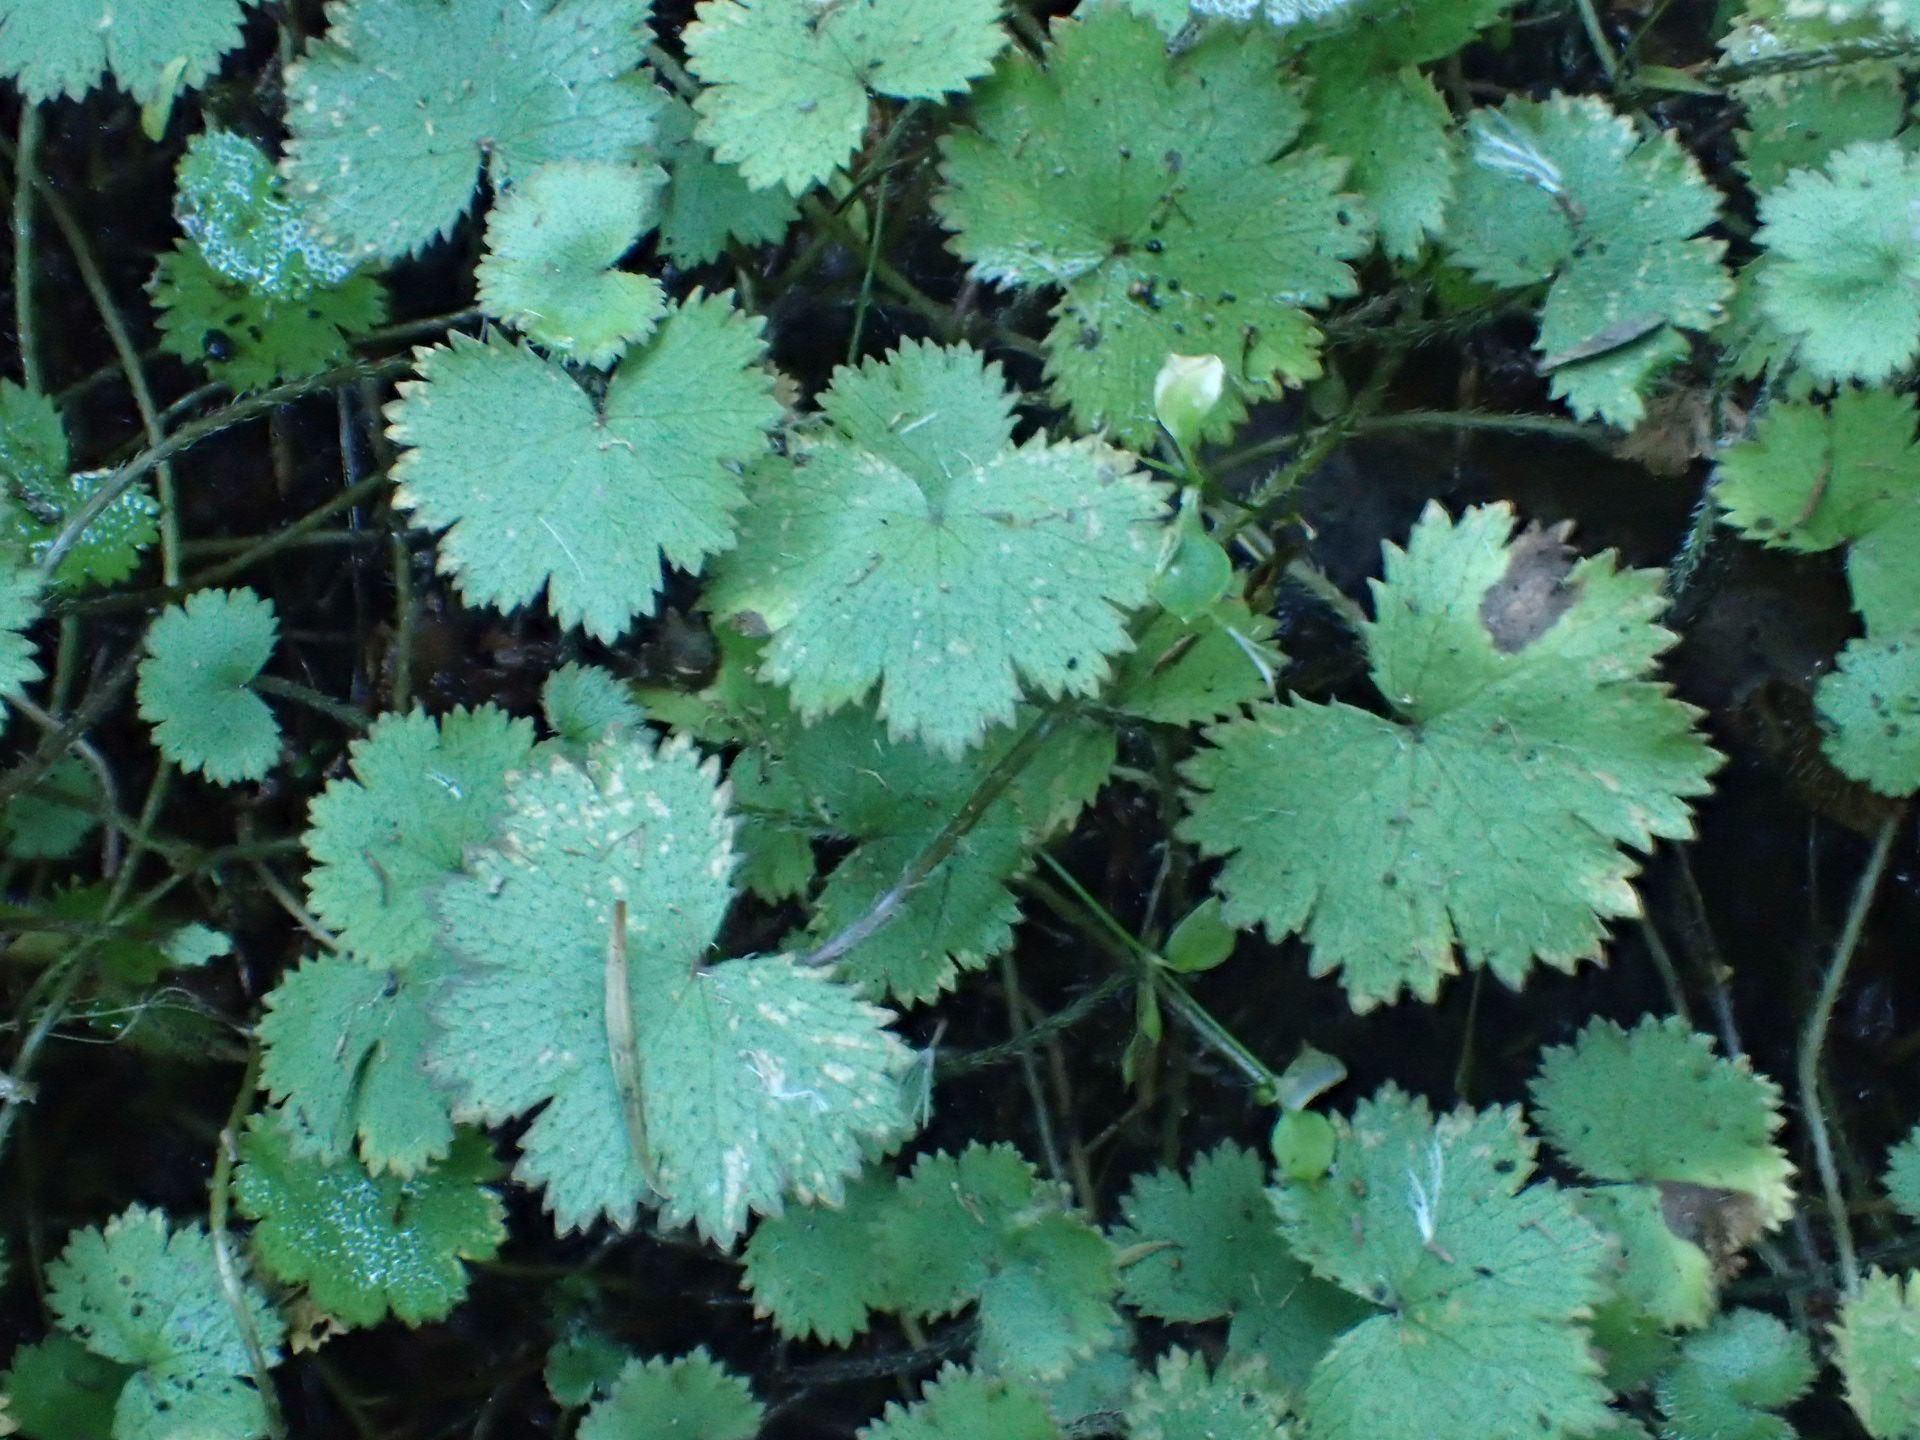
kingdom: Plantae
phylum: Tracheophyta
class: Magnoliopsida
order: Apiales
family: Araliaceae
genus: Hydrocotyle
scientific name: Hydrocotyle moschata
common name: Hairy pennywort
